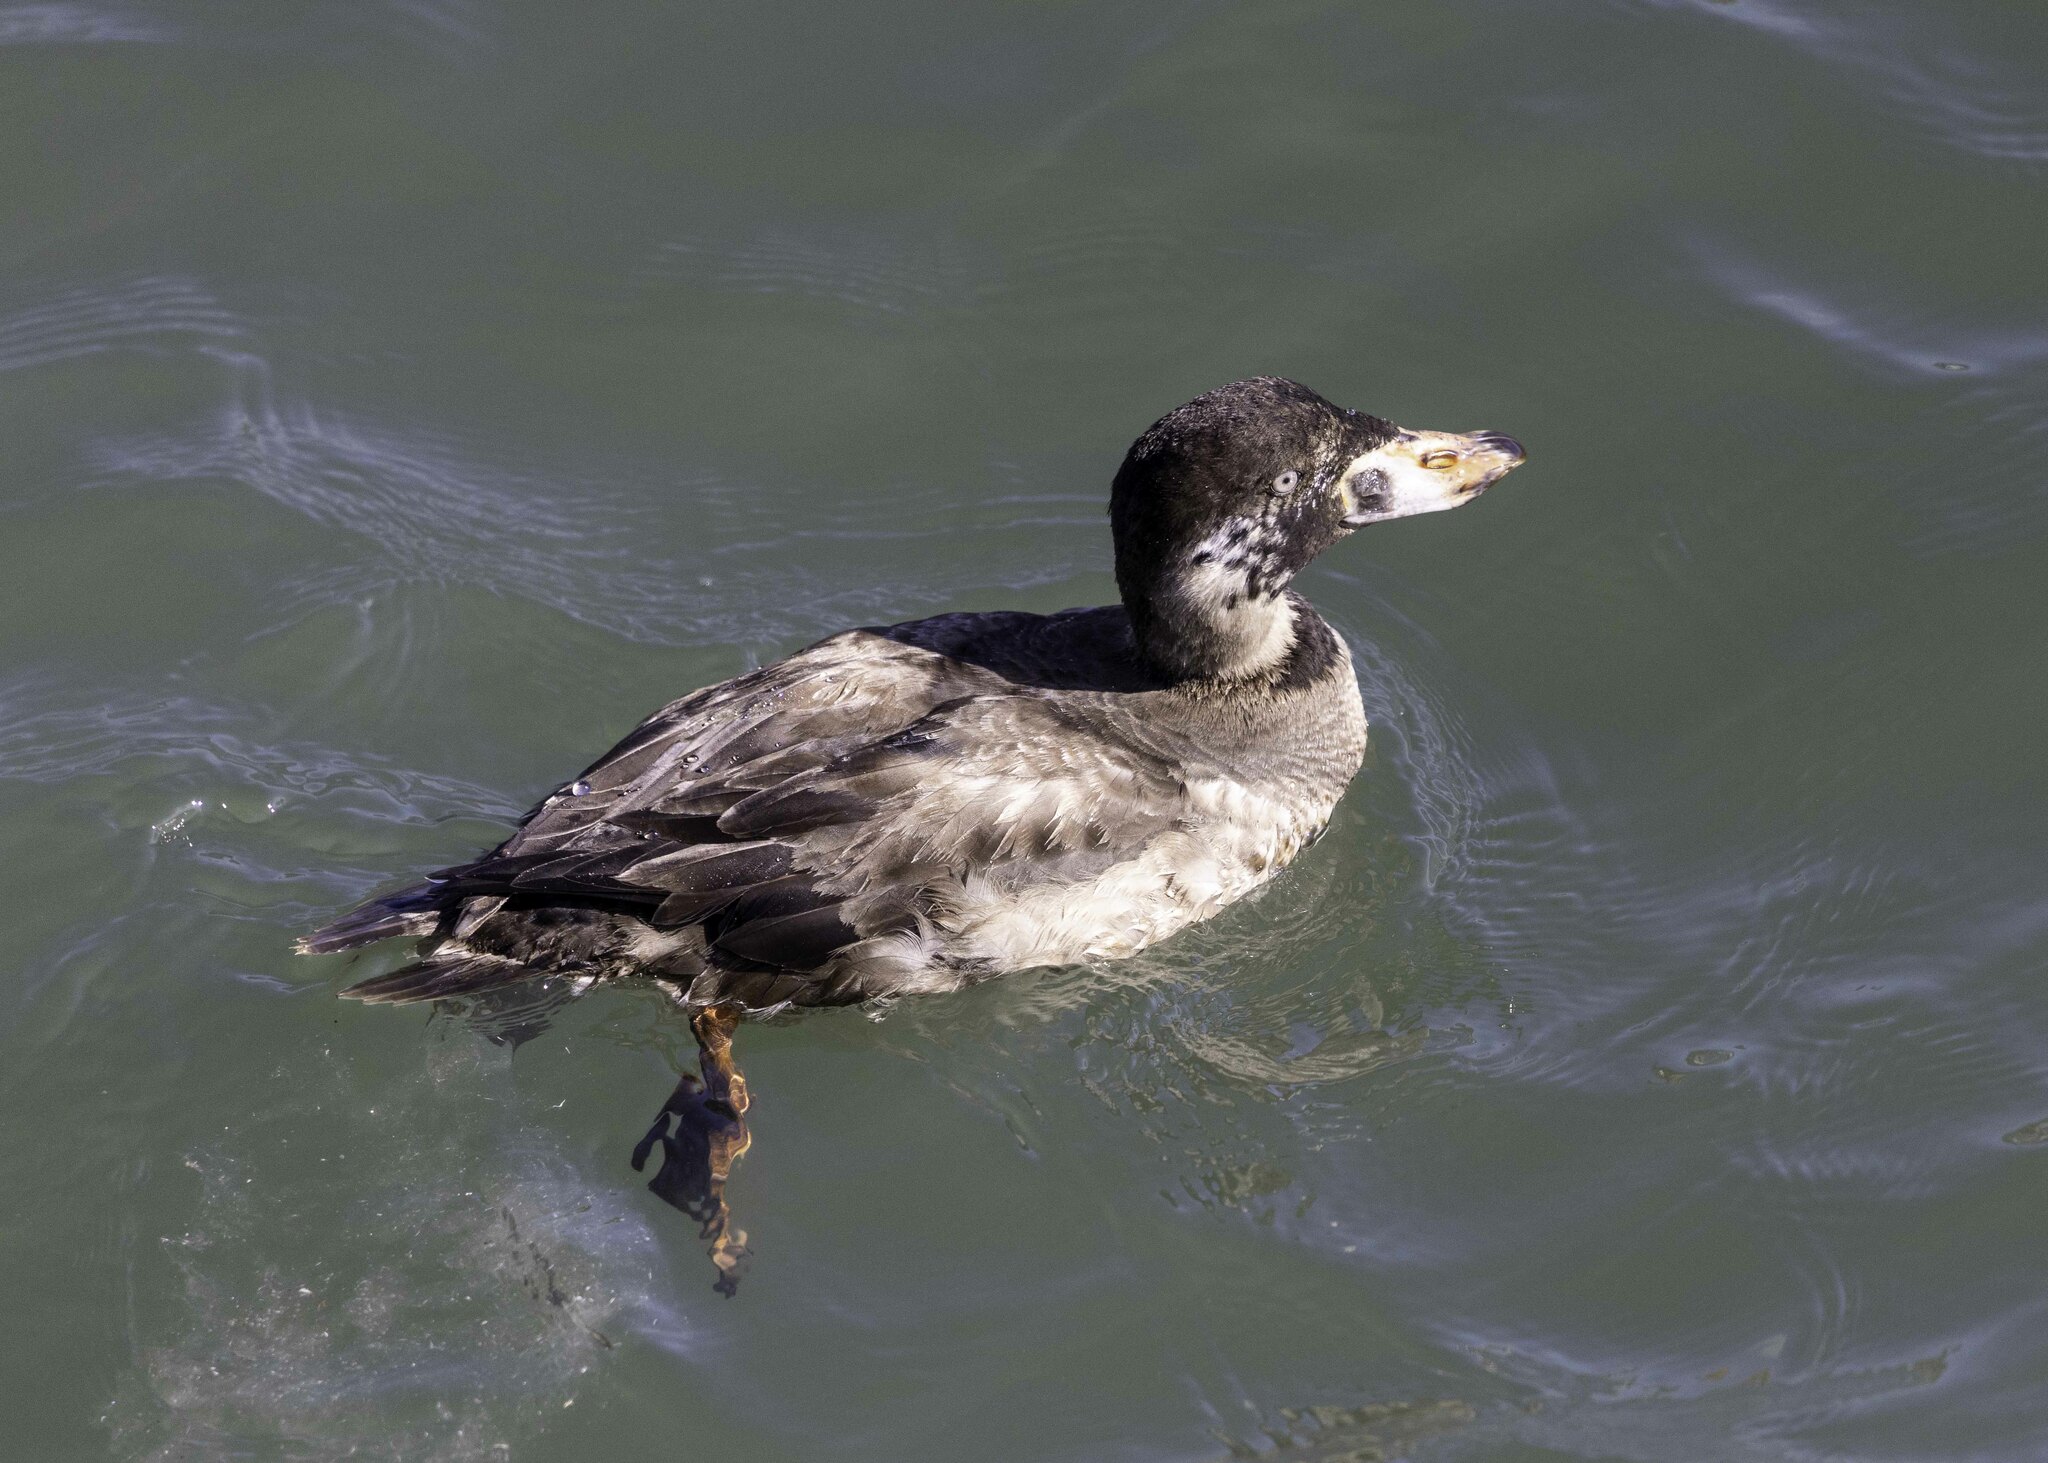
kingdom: Animalia
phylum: Chordata
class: Aves
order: Anseriformes
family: Anatidae
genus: Melanitta
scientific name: Melanitta perspicillata
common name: Surf scoter
